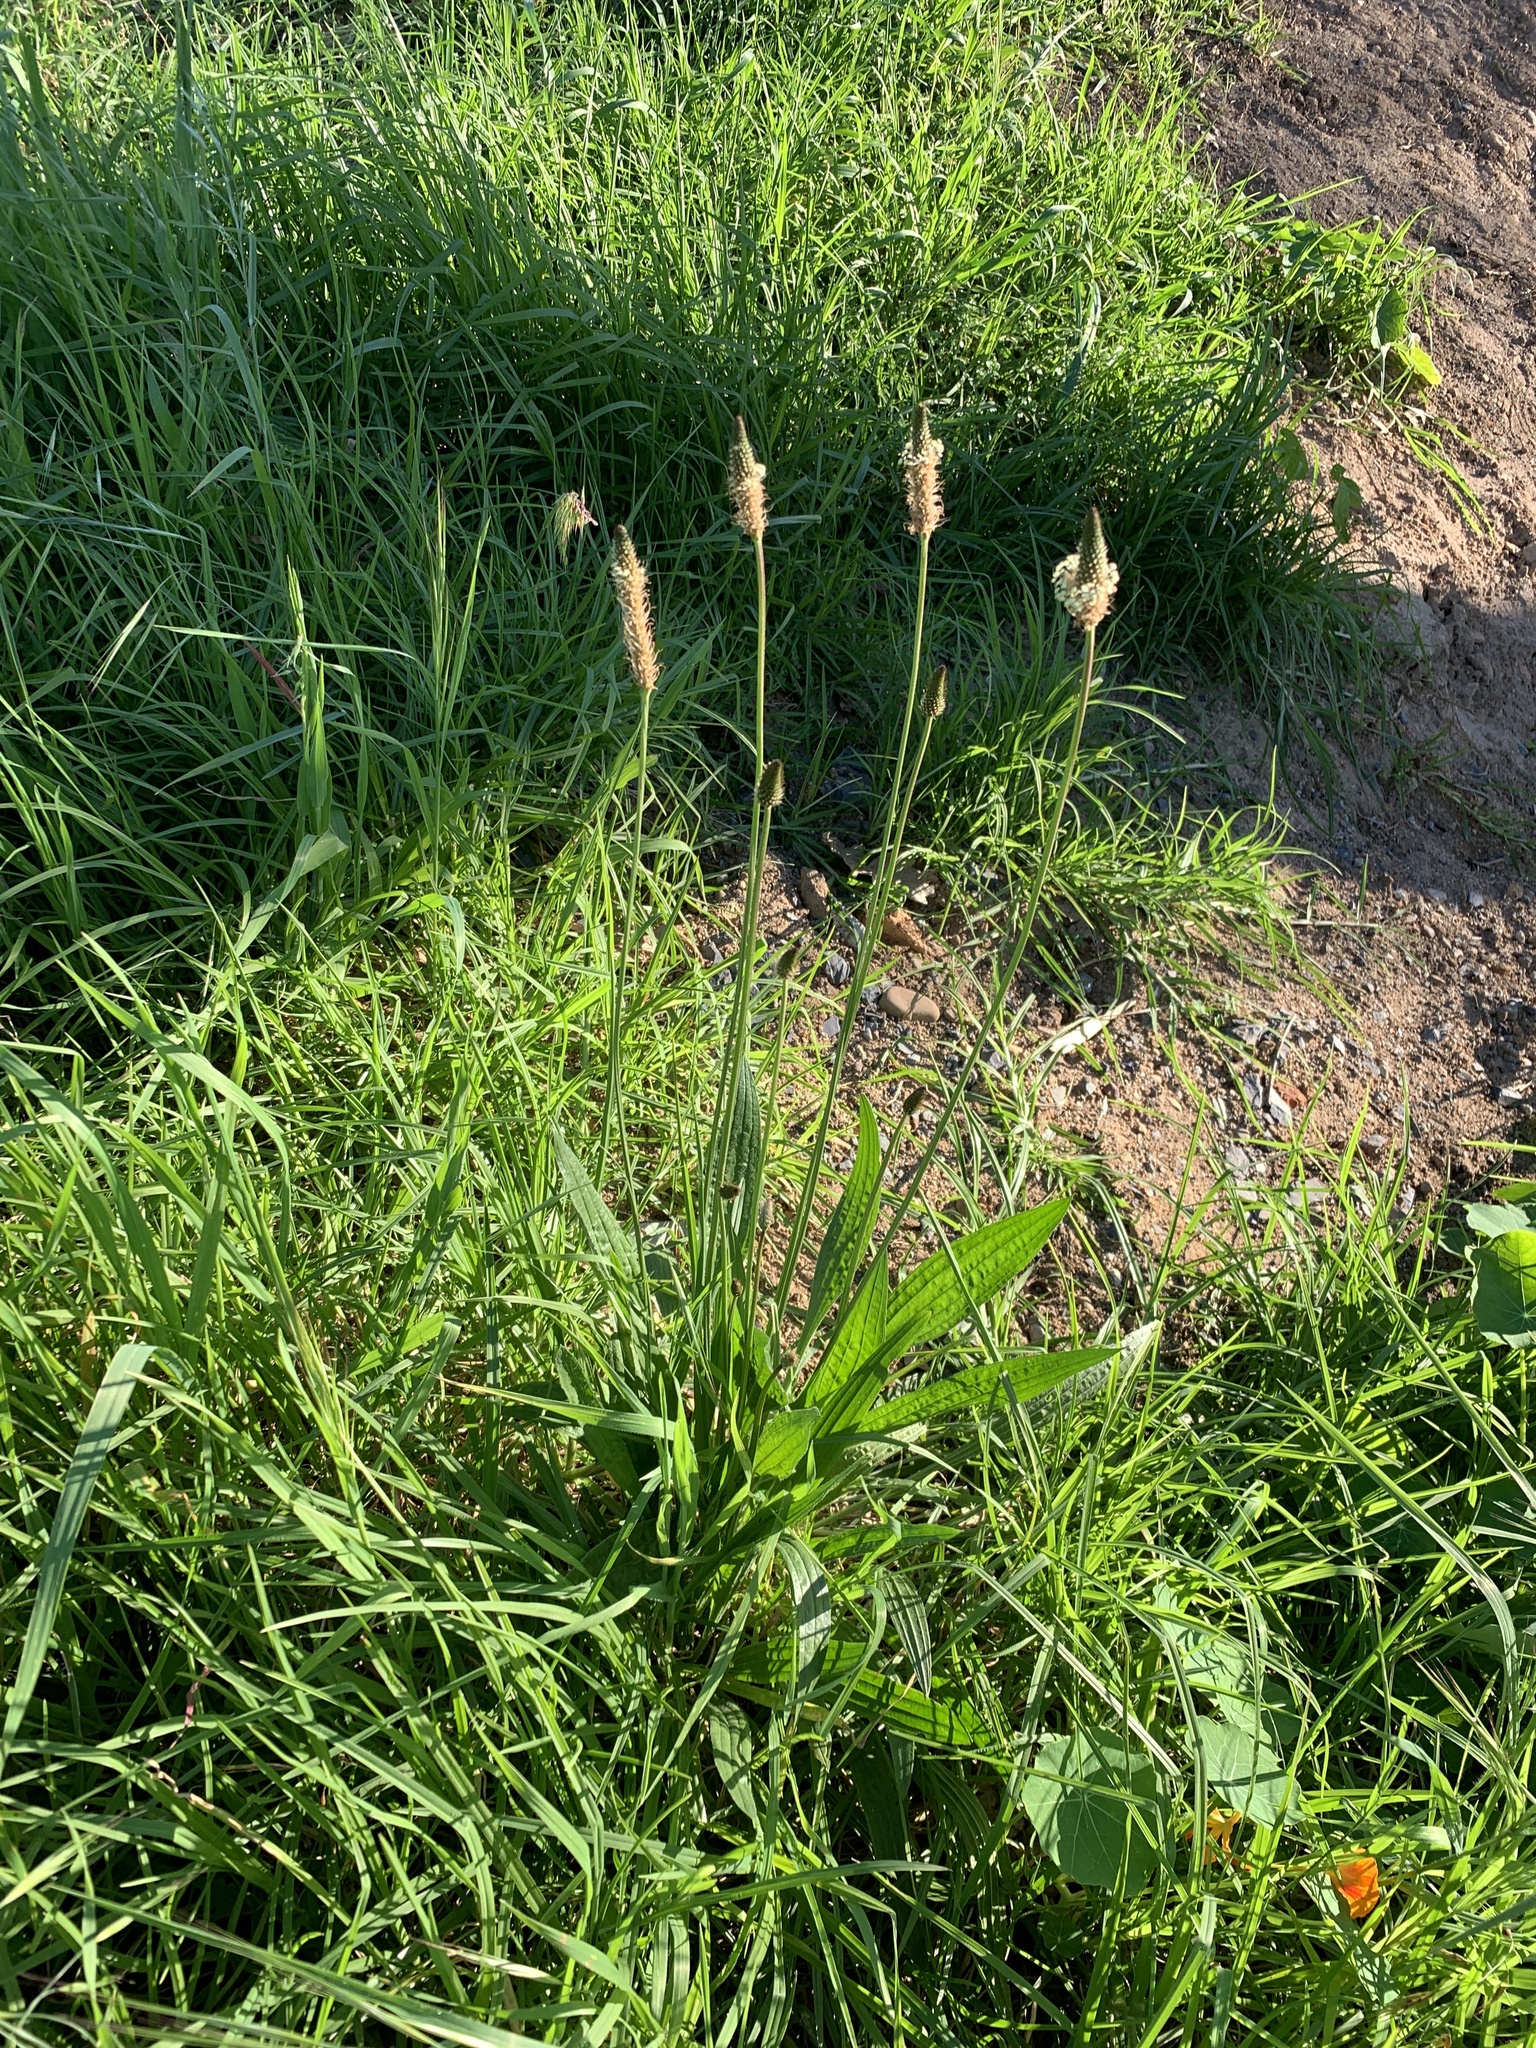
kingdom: Plantae
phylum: Tracheophyta
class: Magnoliopsida
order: Lamiales
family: Plantaginaceae
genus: Plantago
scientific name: Plantago lanceolata
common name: Ribwort plantain
